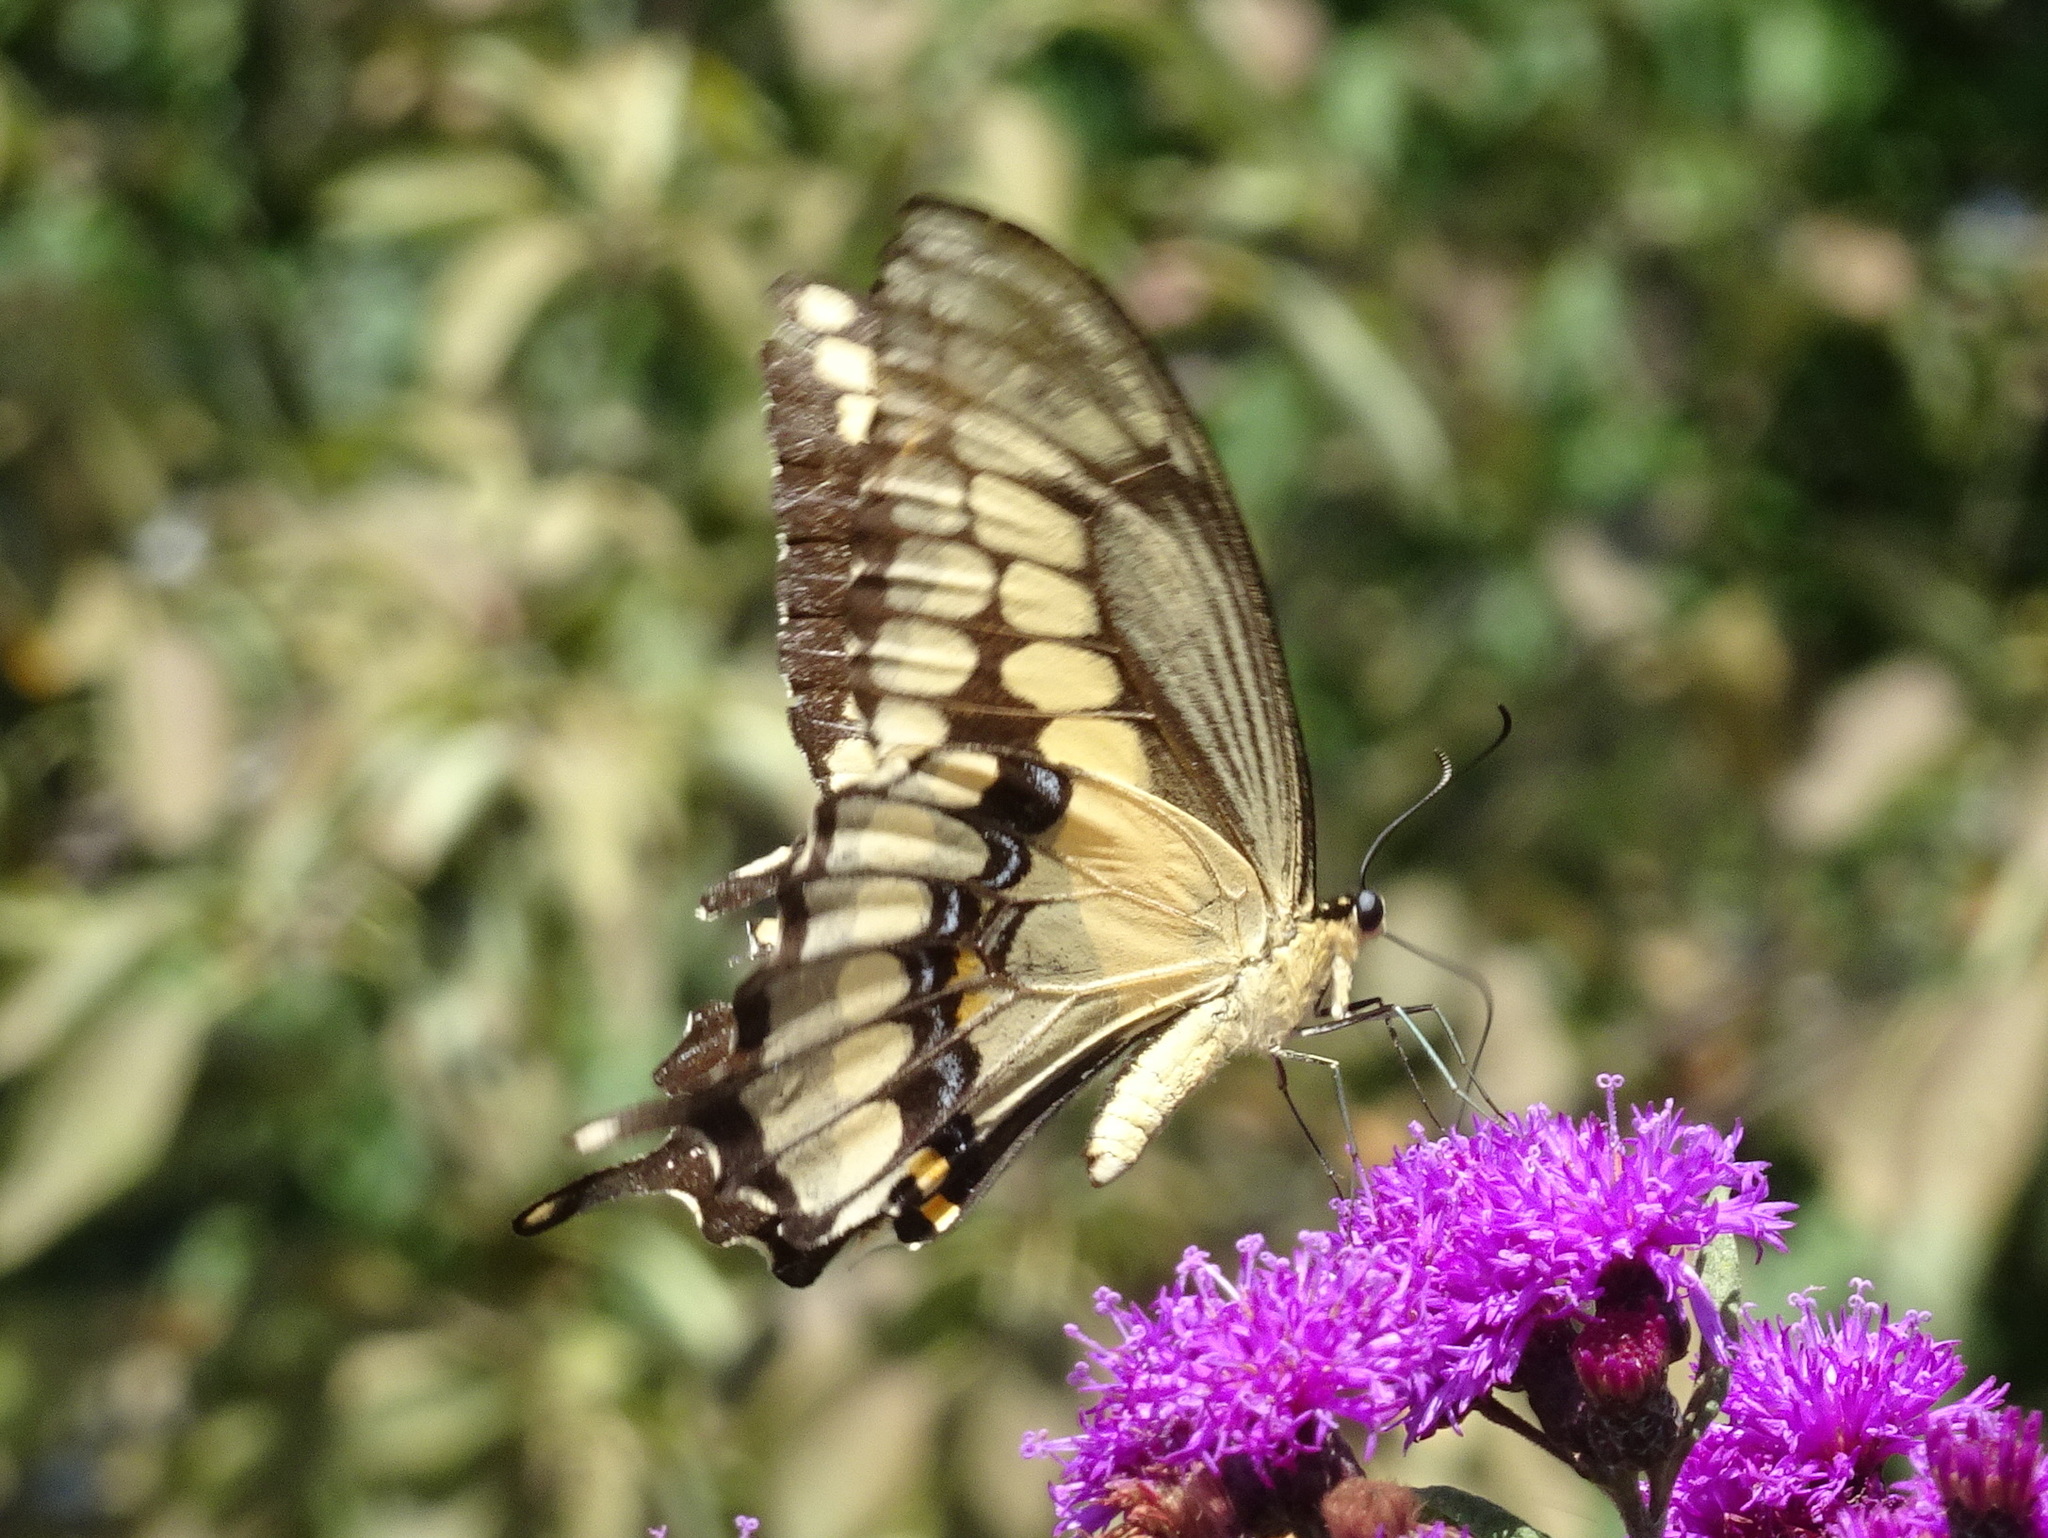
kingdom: Animalia
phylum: Arthropoda
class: Insecta
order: Lepidoptera
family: Papilionidae
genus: Papilio
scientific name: Papilio cresphontes
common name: Giant swallowtail
